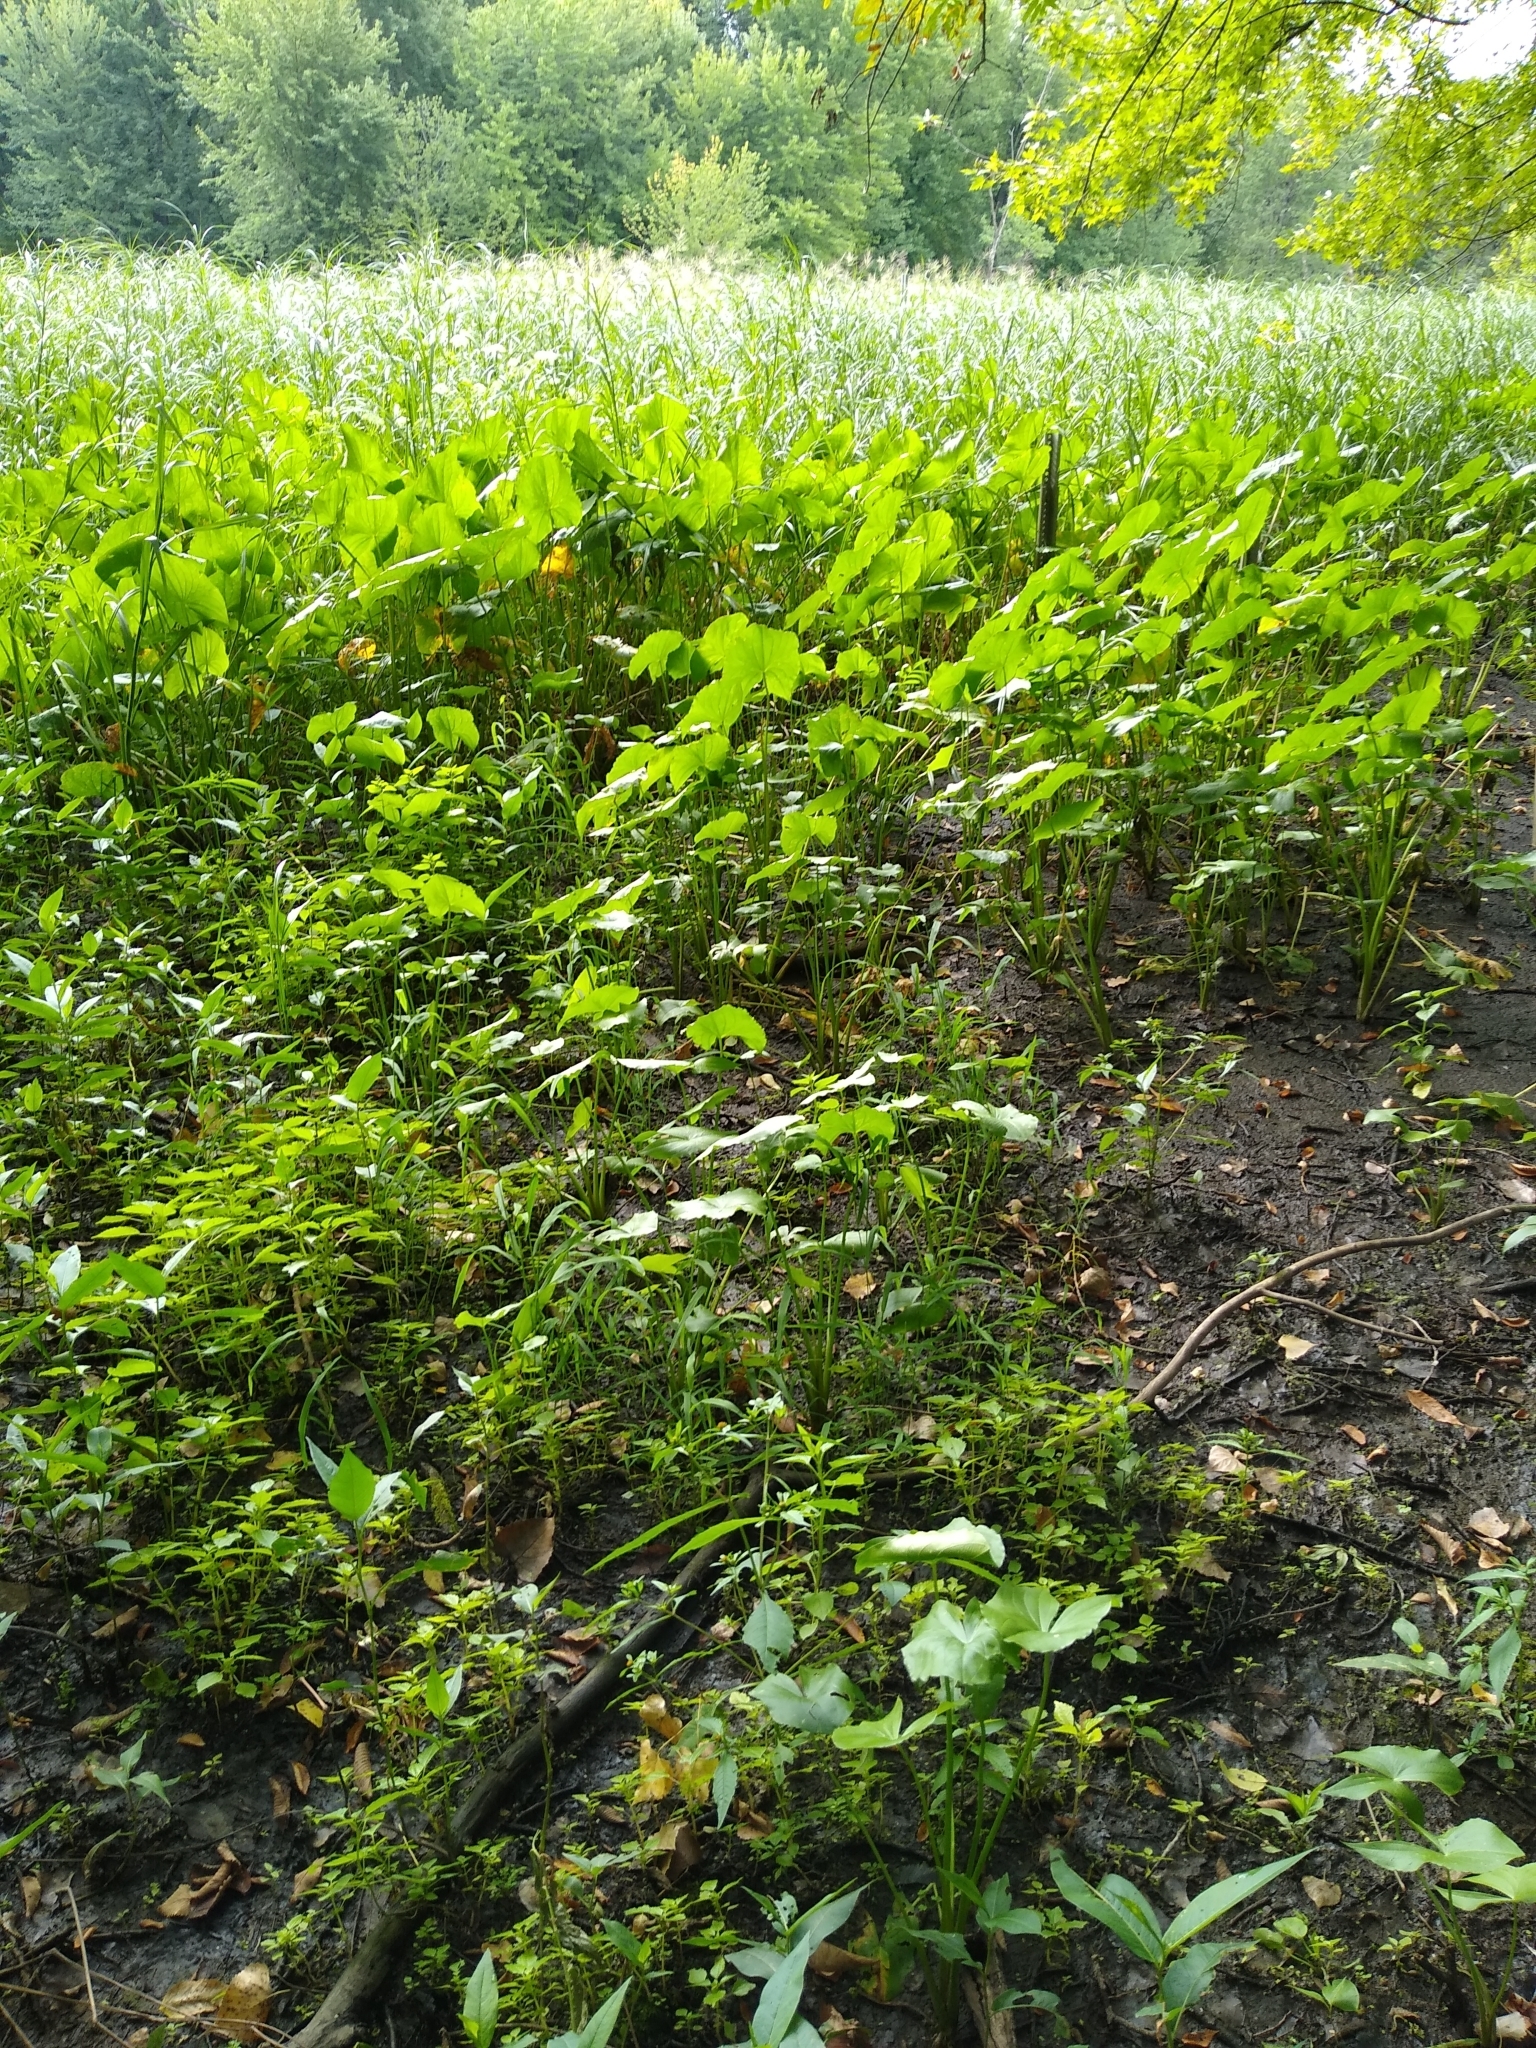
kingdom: Plantae
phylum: Tracheophyta
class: Liliopsida
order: Alismatales
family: Alismataceae
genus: Sagittaria
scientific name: Sagittaria latifolia
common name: Duck-potato
